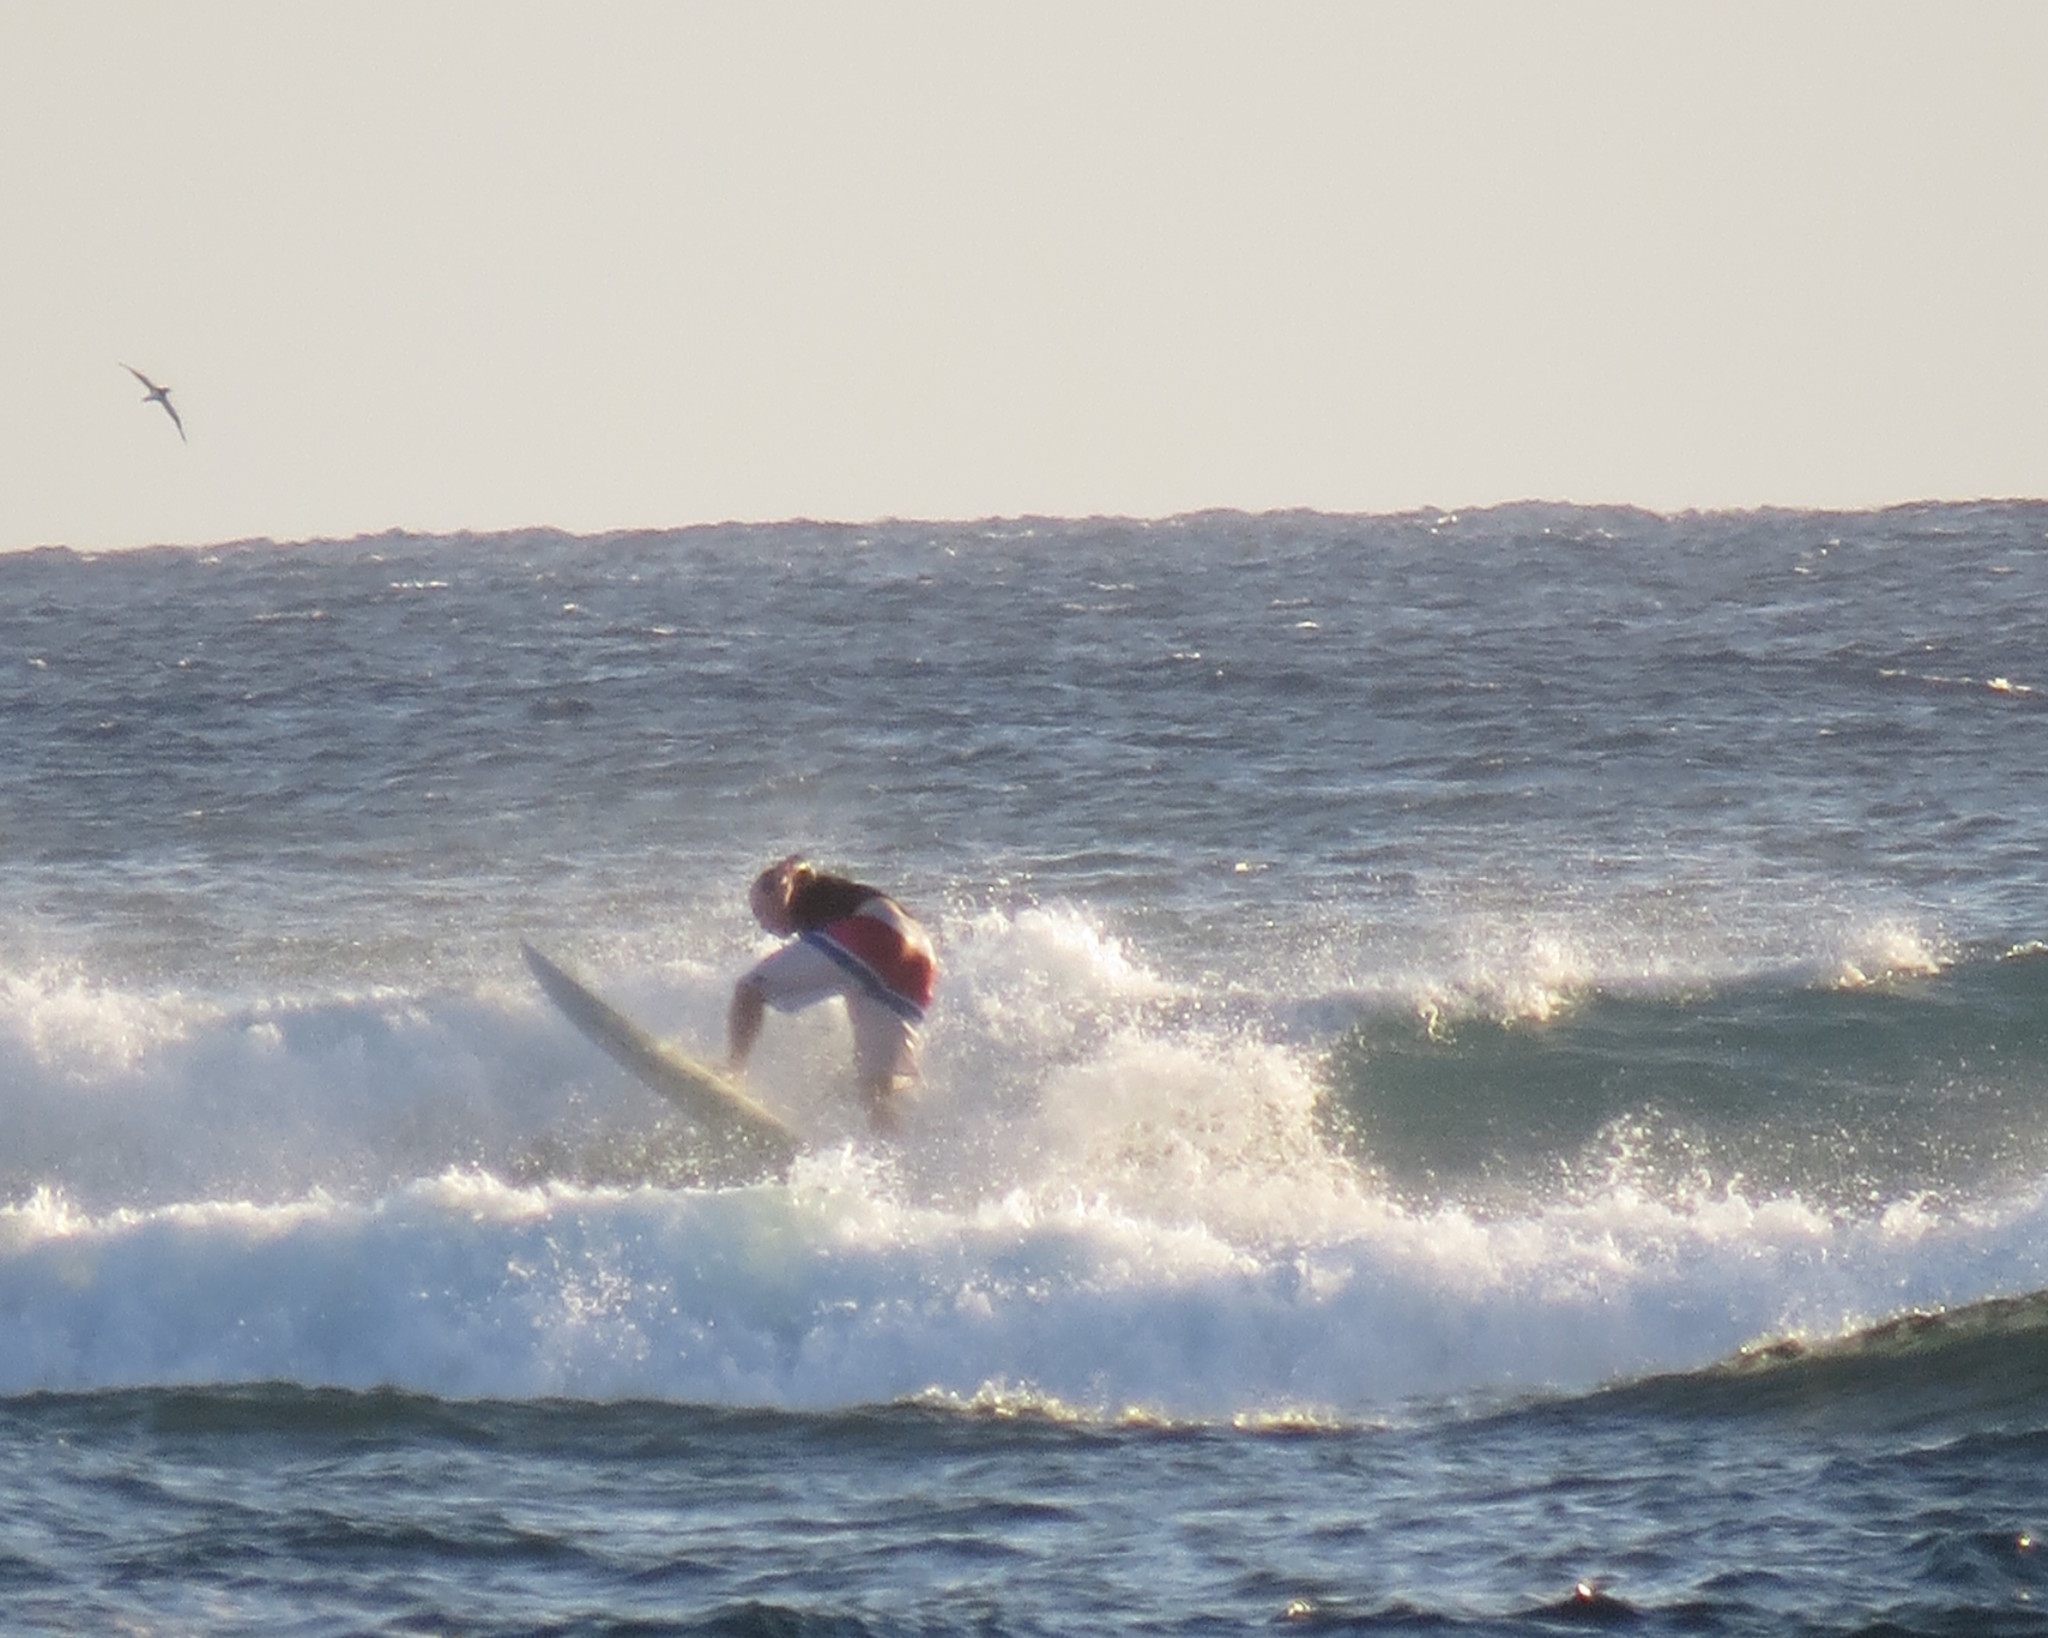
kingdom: Animalia
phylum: Chordata
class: Aves
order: Suliformes
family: Sulidae
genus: Sula
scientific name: Sula
